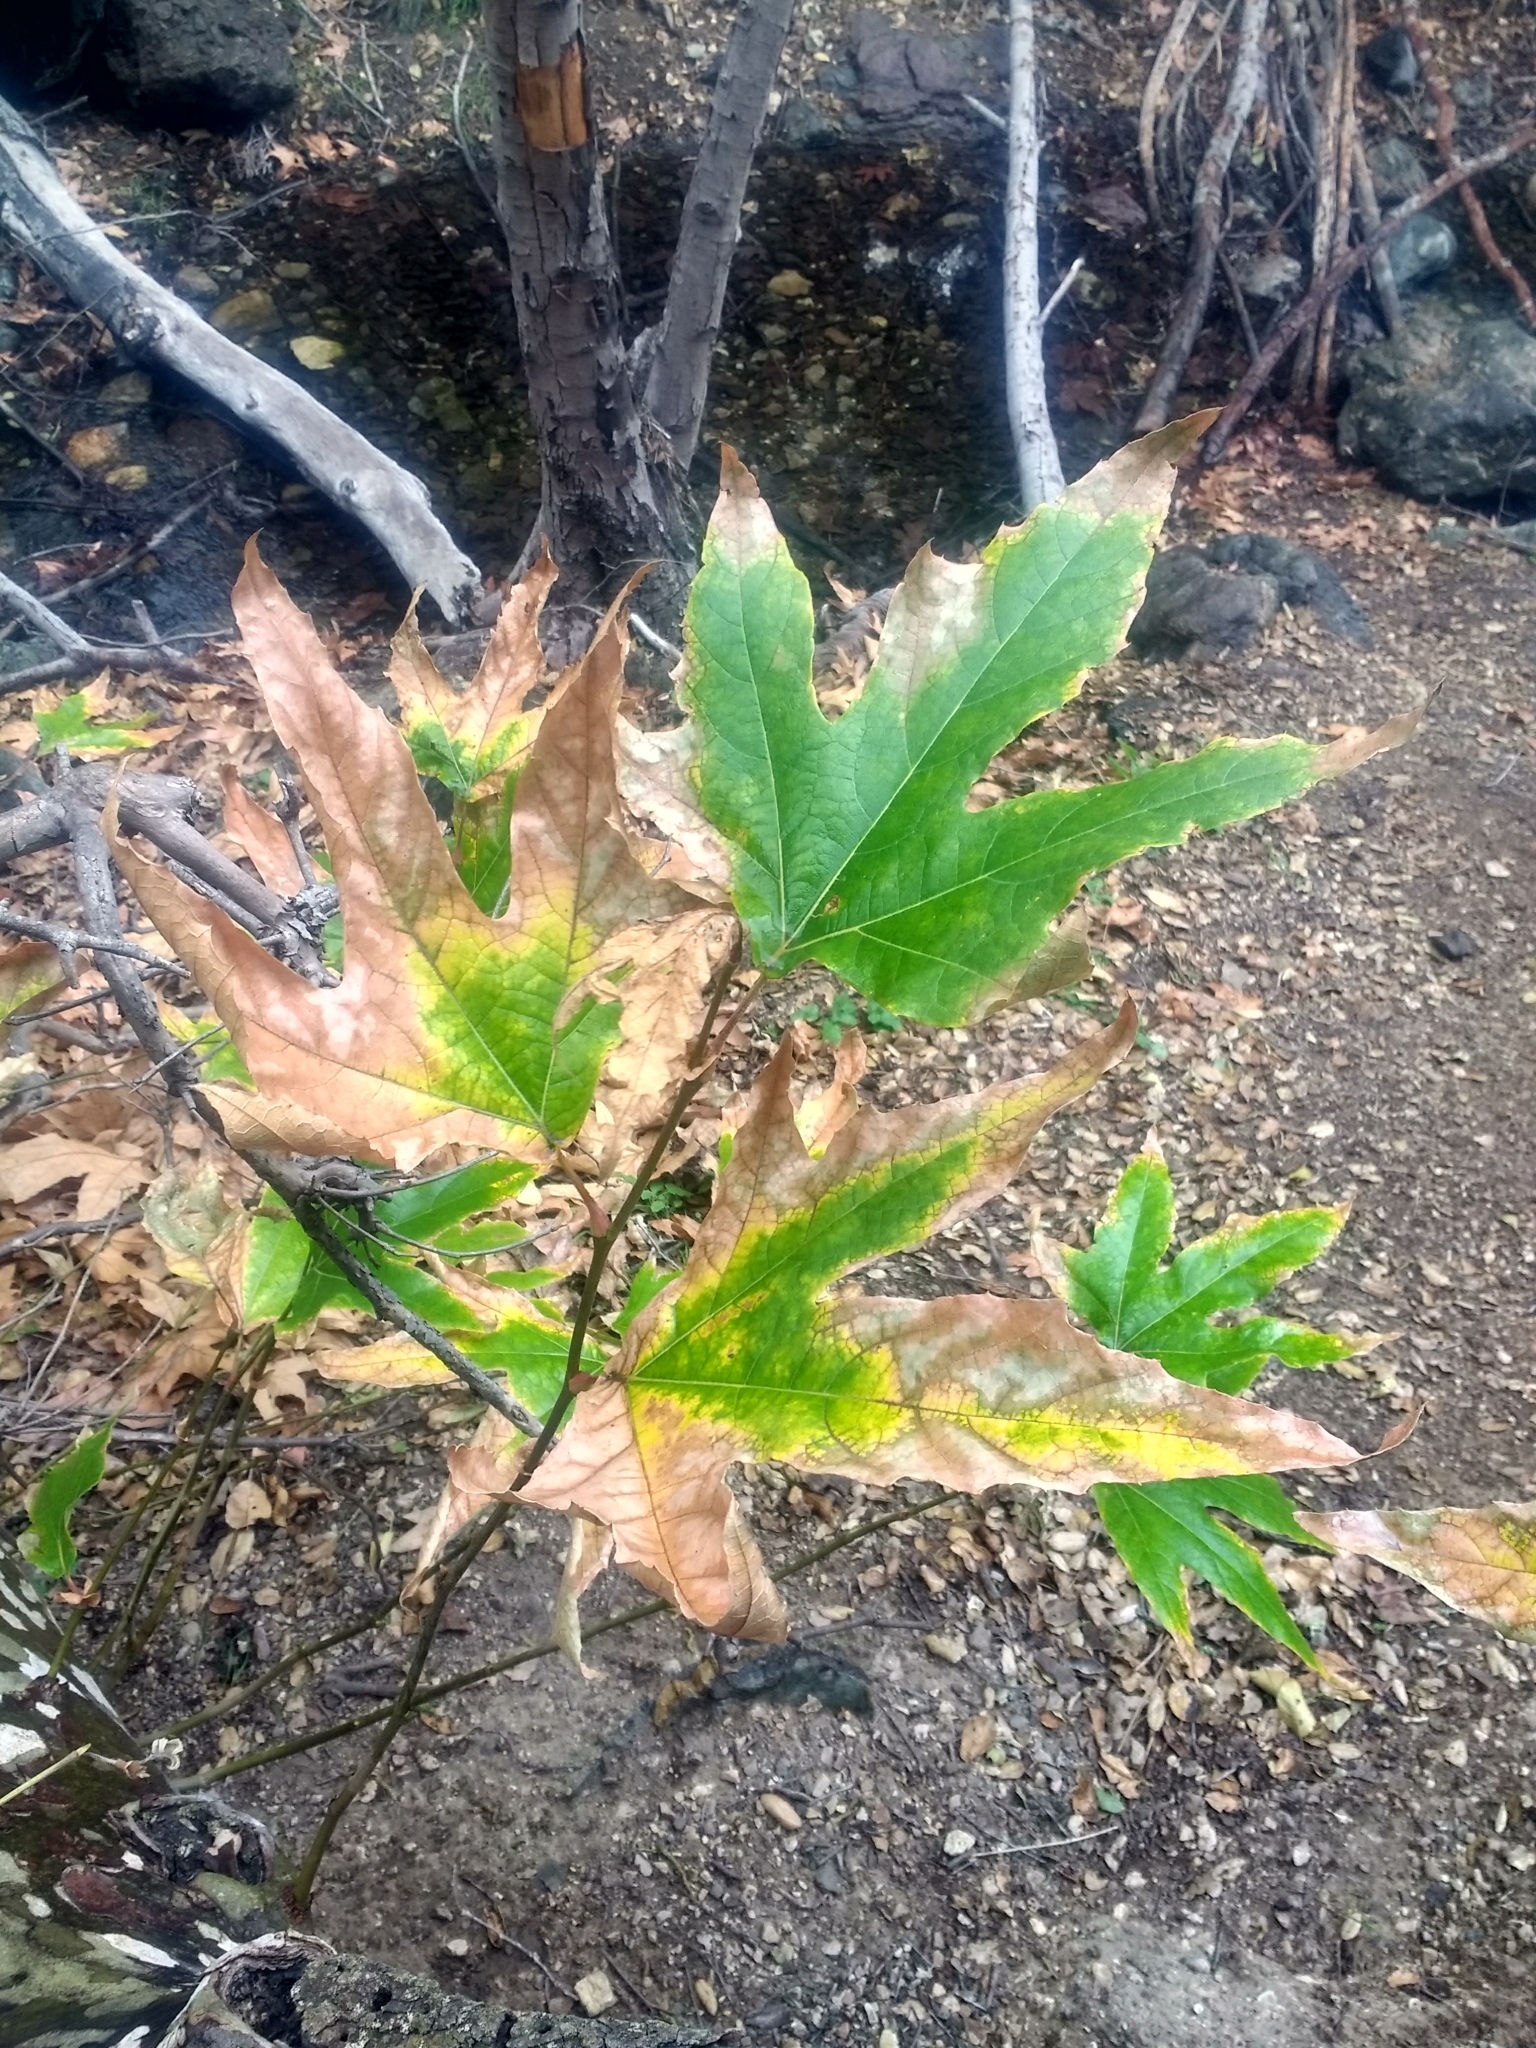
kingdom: Plantae
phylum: Tracheophyta
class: Magnoliopsida
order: Proteales
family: Platanaceae
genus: Platanus
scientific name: Platanus racemosa
